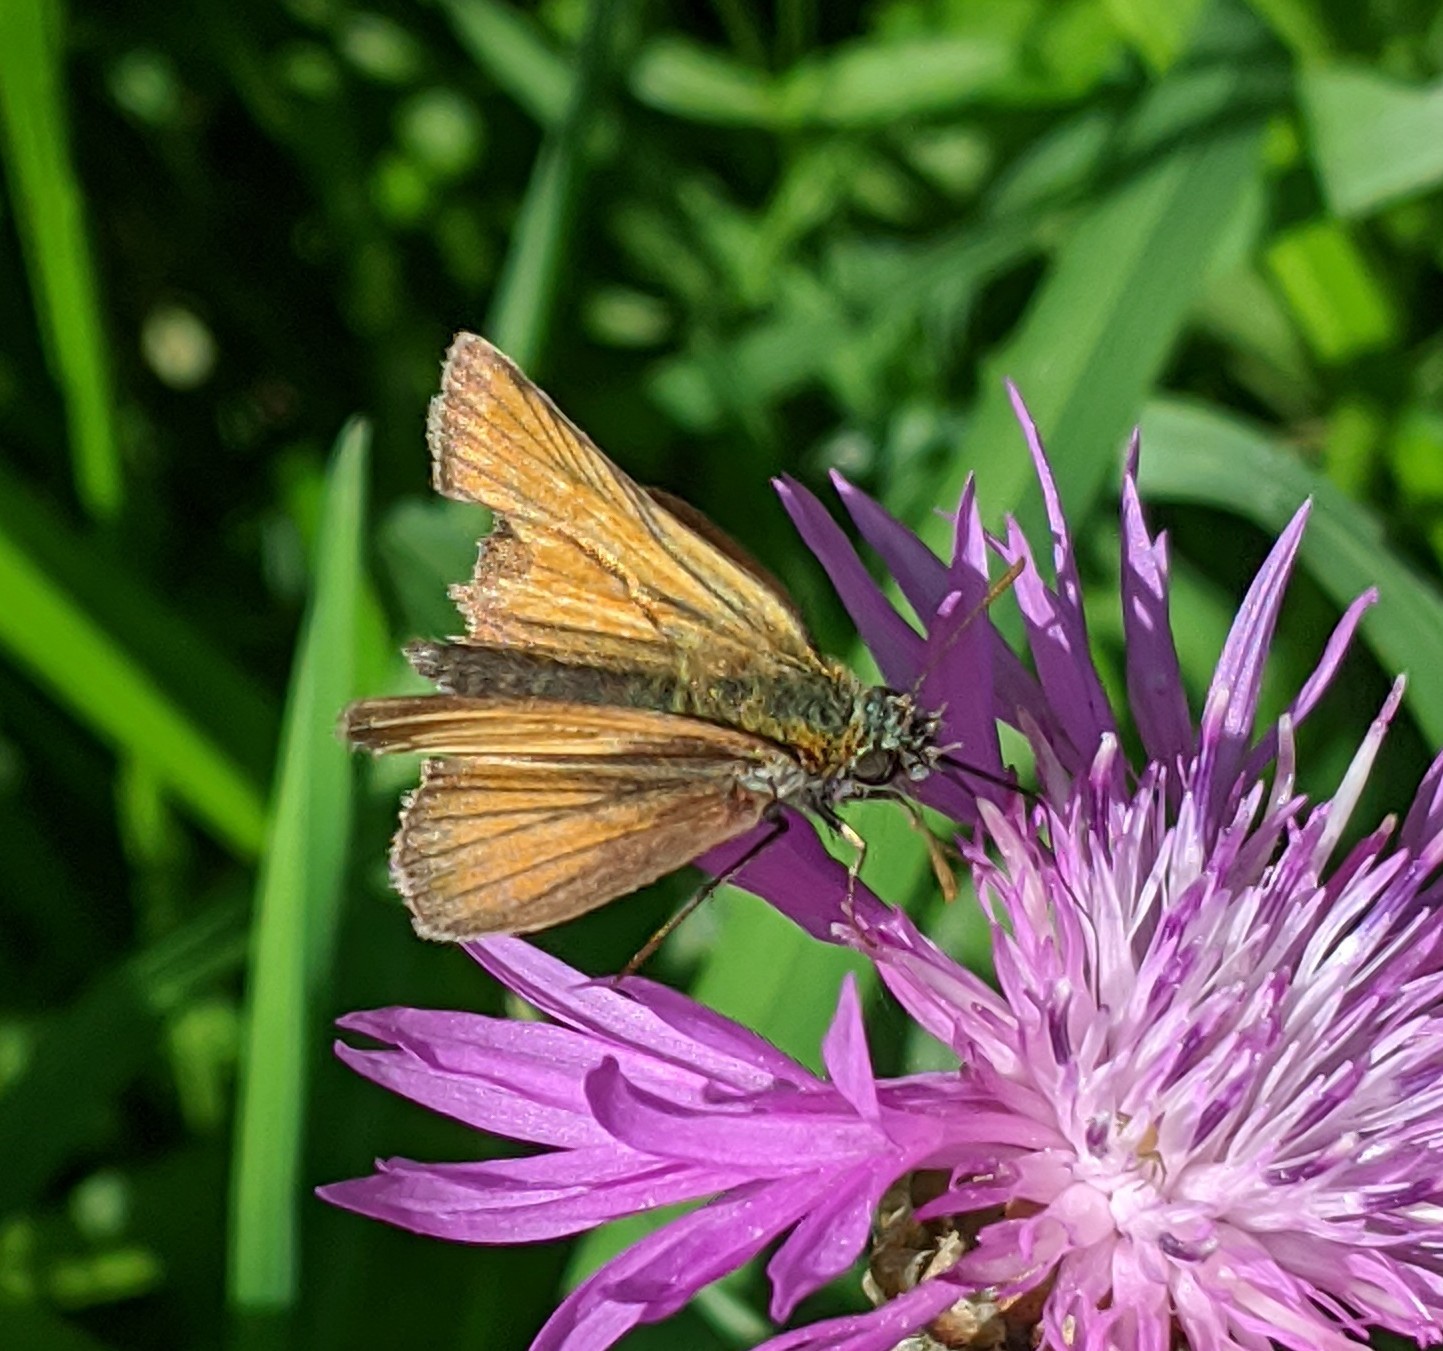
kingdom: Animalia
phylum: Arthropoda
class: Insecta
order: Lepidoptera
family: Hesperiidae
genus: Thymelicus
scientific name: Thymelicus sylvestris
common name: Small skipper
